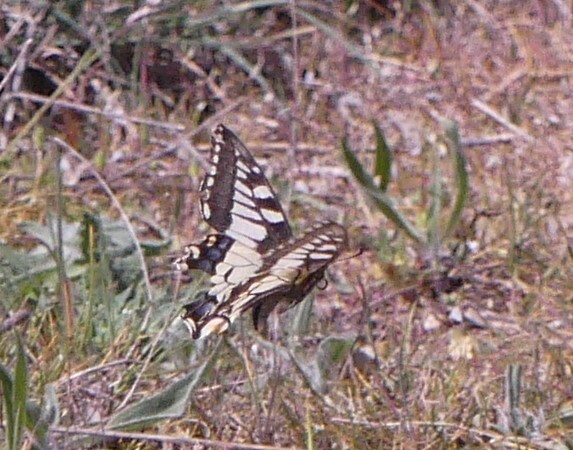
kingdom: Animalia
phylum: Arthropoda
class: Insecta
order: Lepidoptera
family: Papilionidae
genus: Papilio
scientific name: Papilio machaon
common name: Swallowtail
